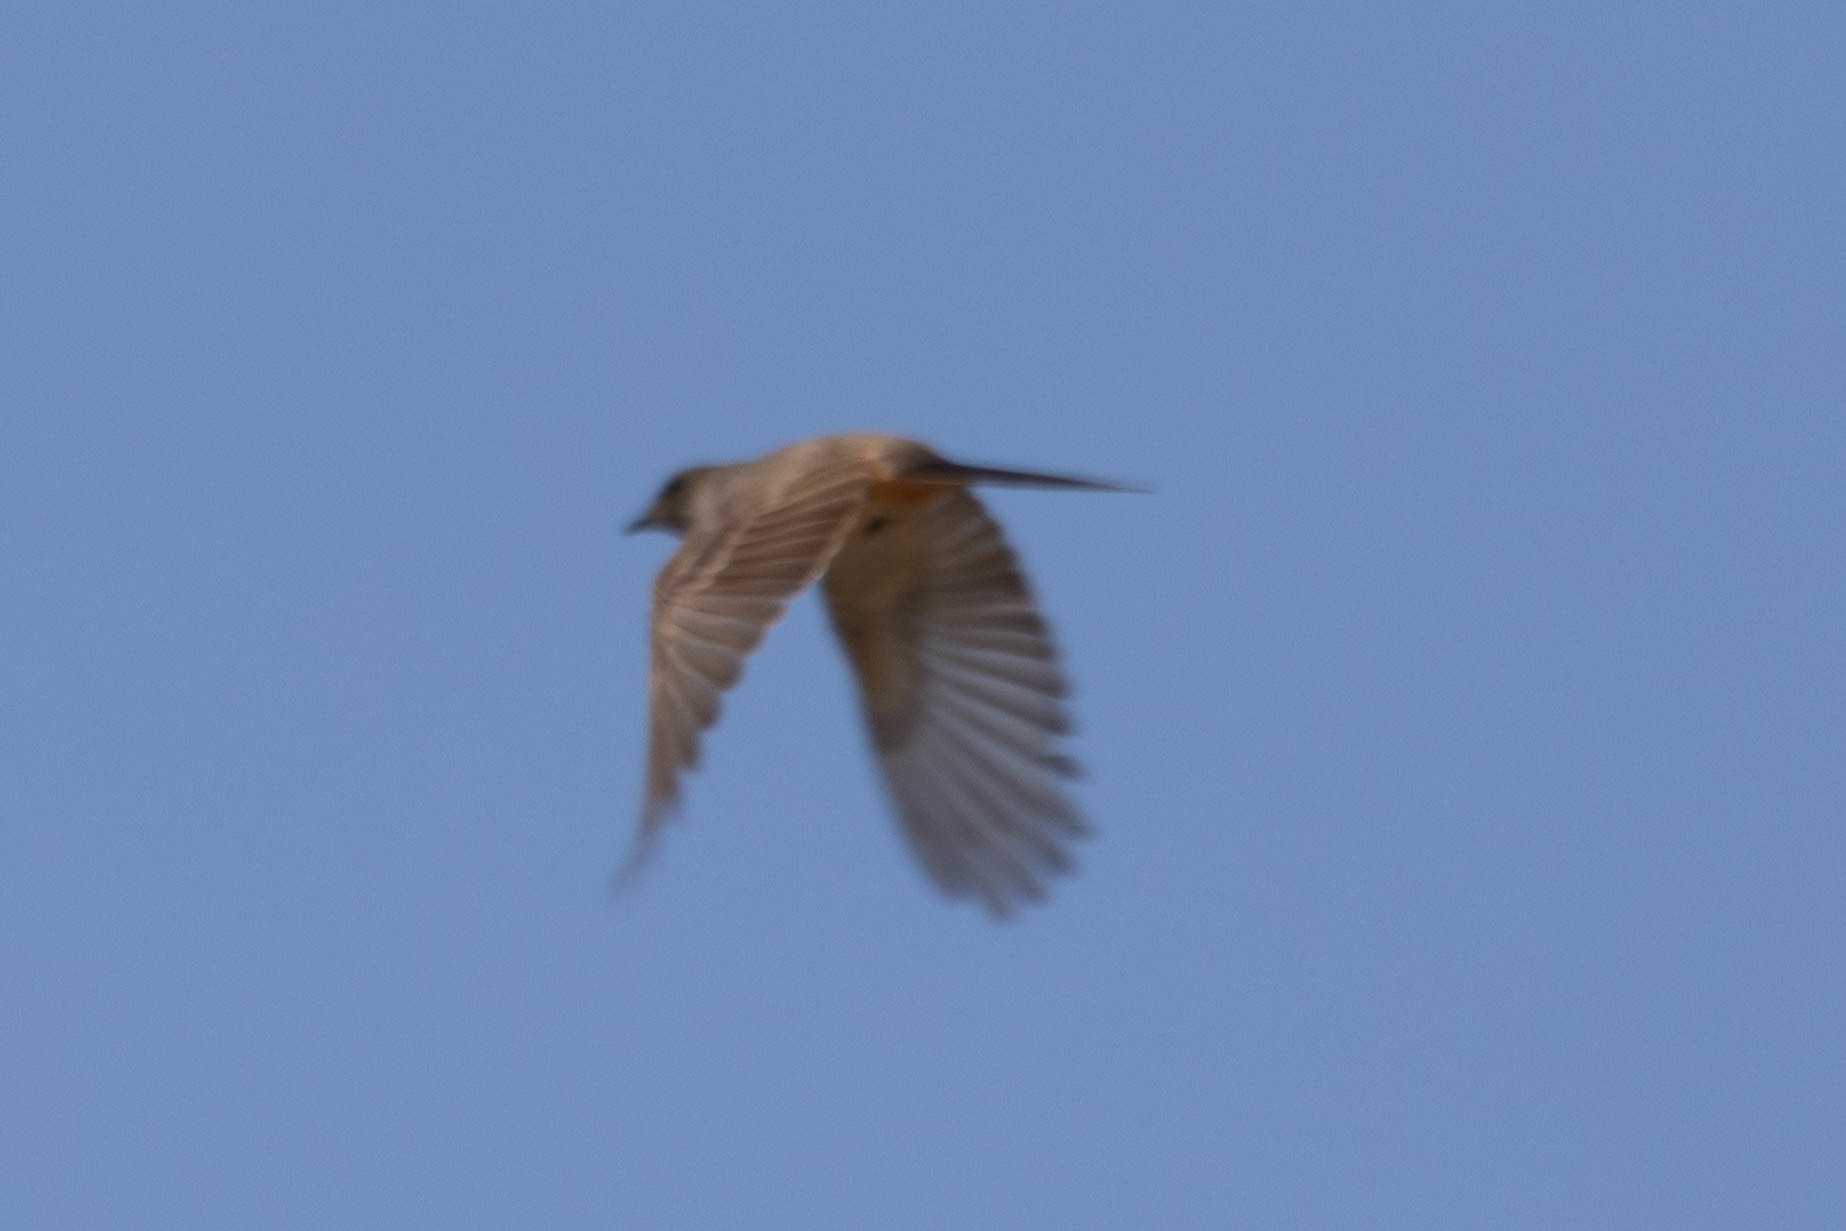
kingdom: Animalia
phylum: Chordata
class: Aves
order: Passeriformes
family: Tyrannidae
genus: Sayornis
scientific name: Sayornis saya
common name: Say's phoebe
